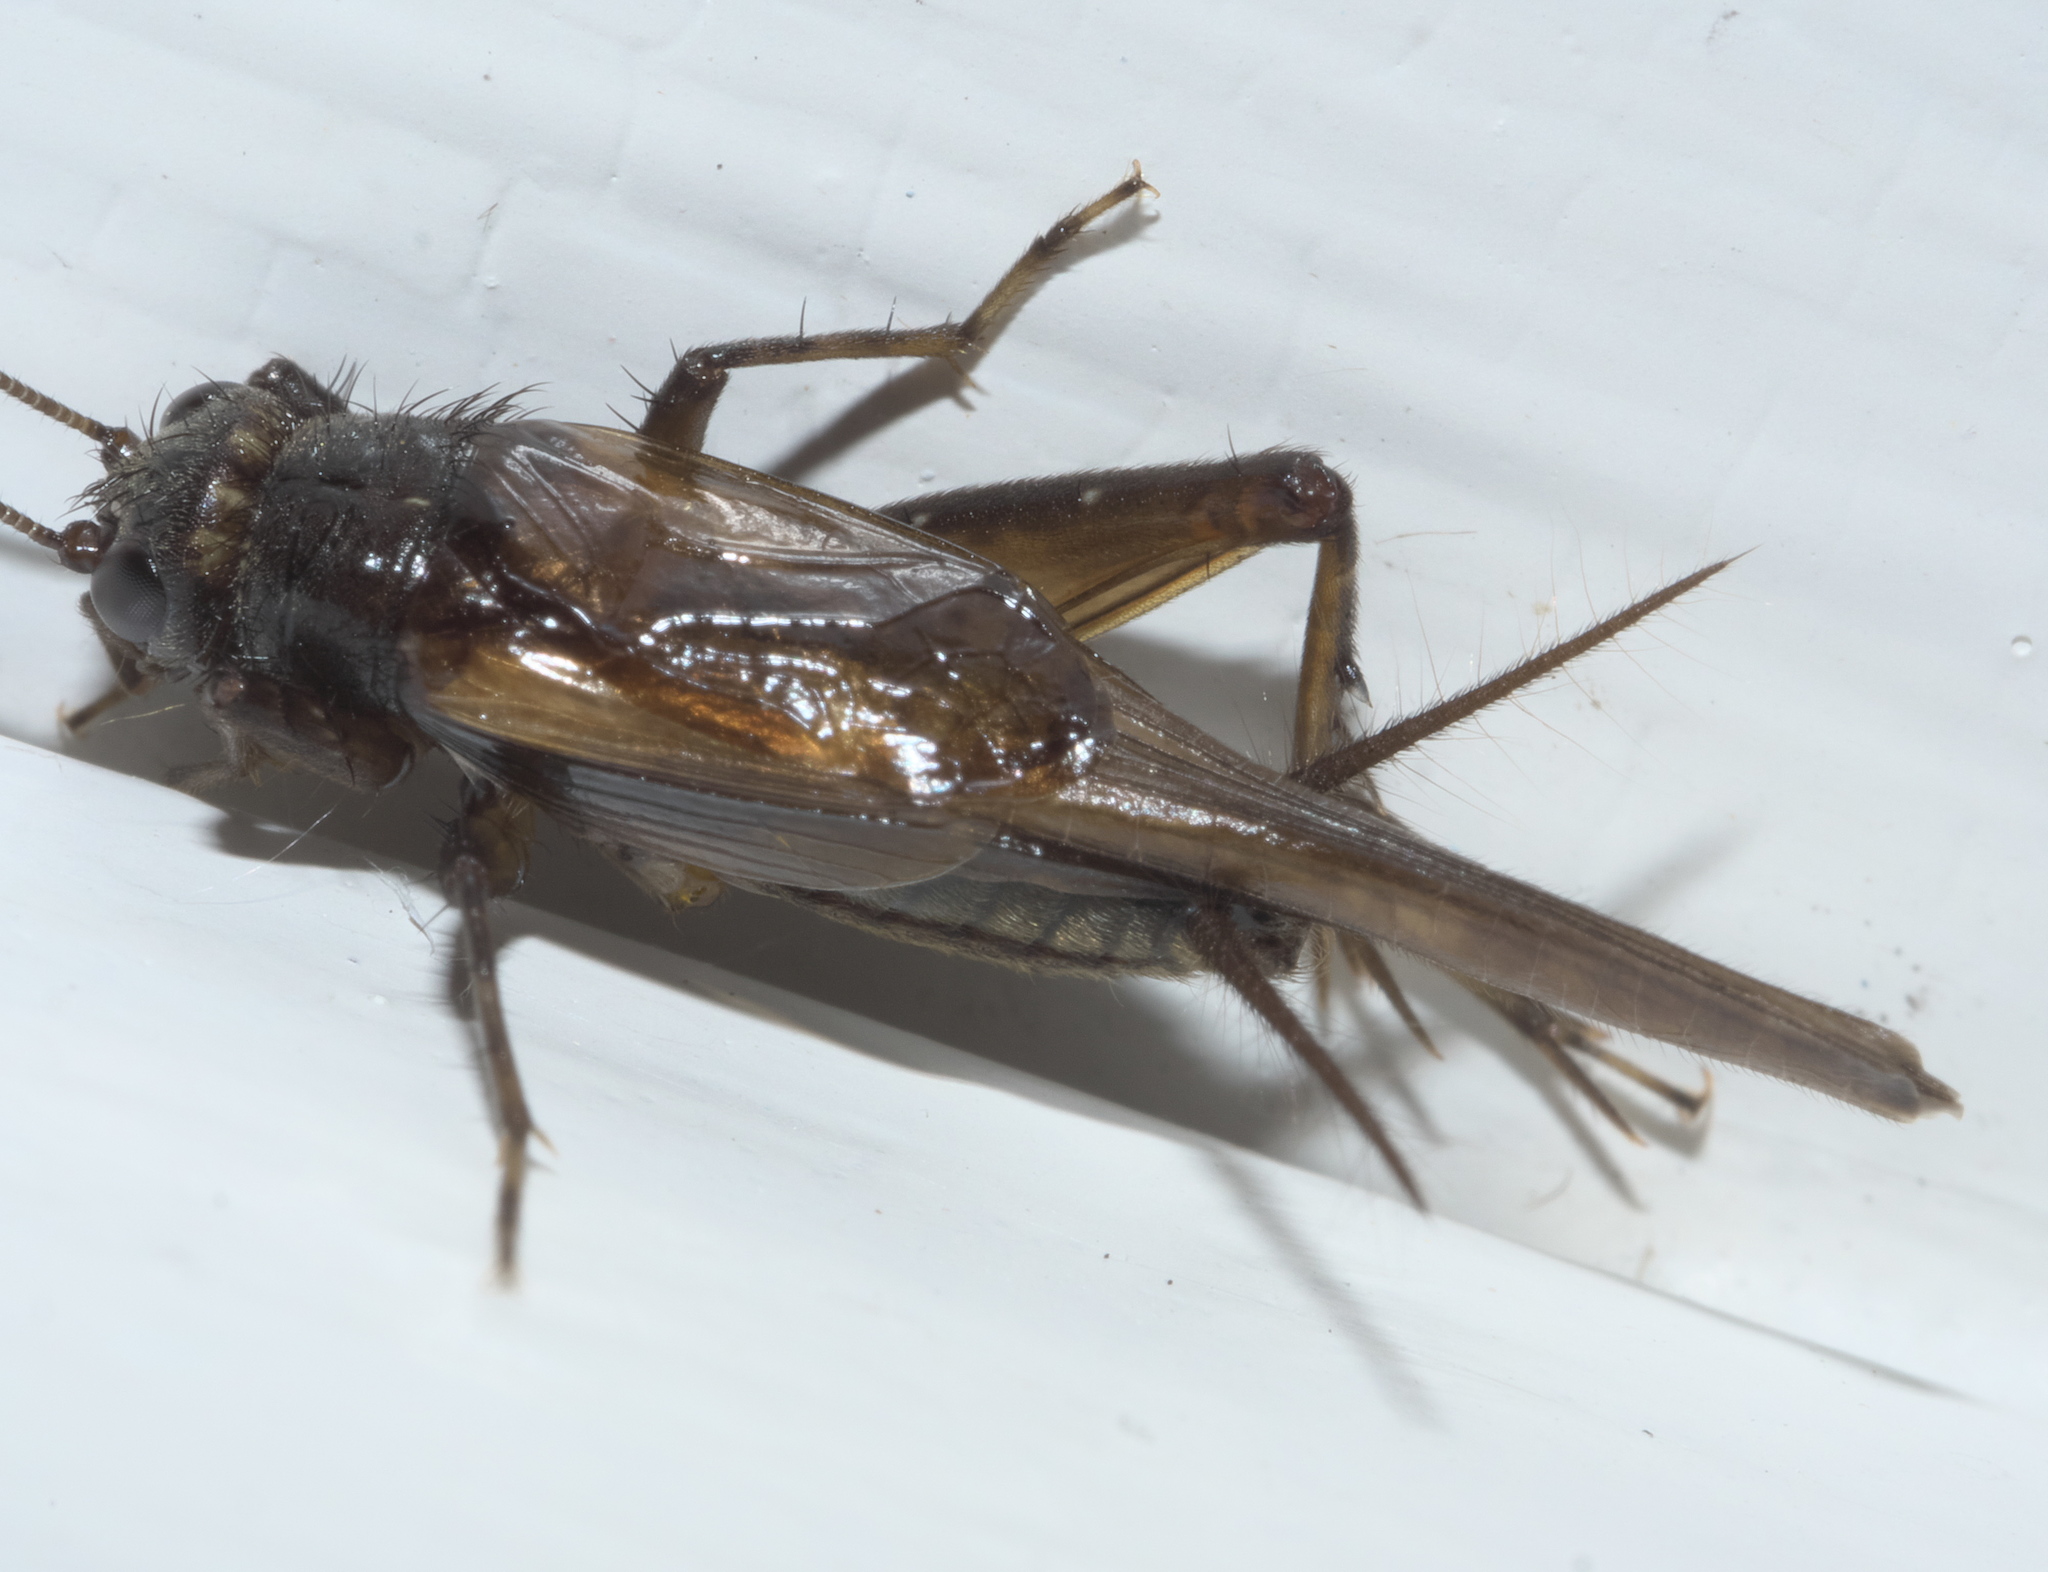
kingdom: Animalia
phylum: Arthropoda
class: Insecta
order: Orthoptera
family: Trigonidiidae
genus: Pteronemobius
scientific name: Pteronemobius truncatus
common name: Confusing pygmy cricket
